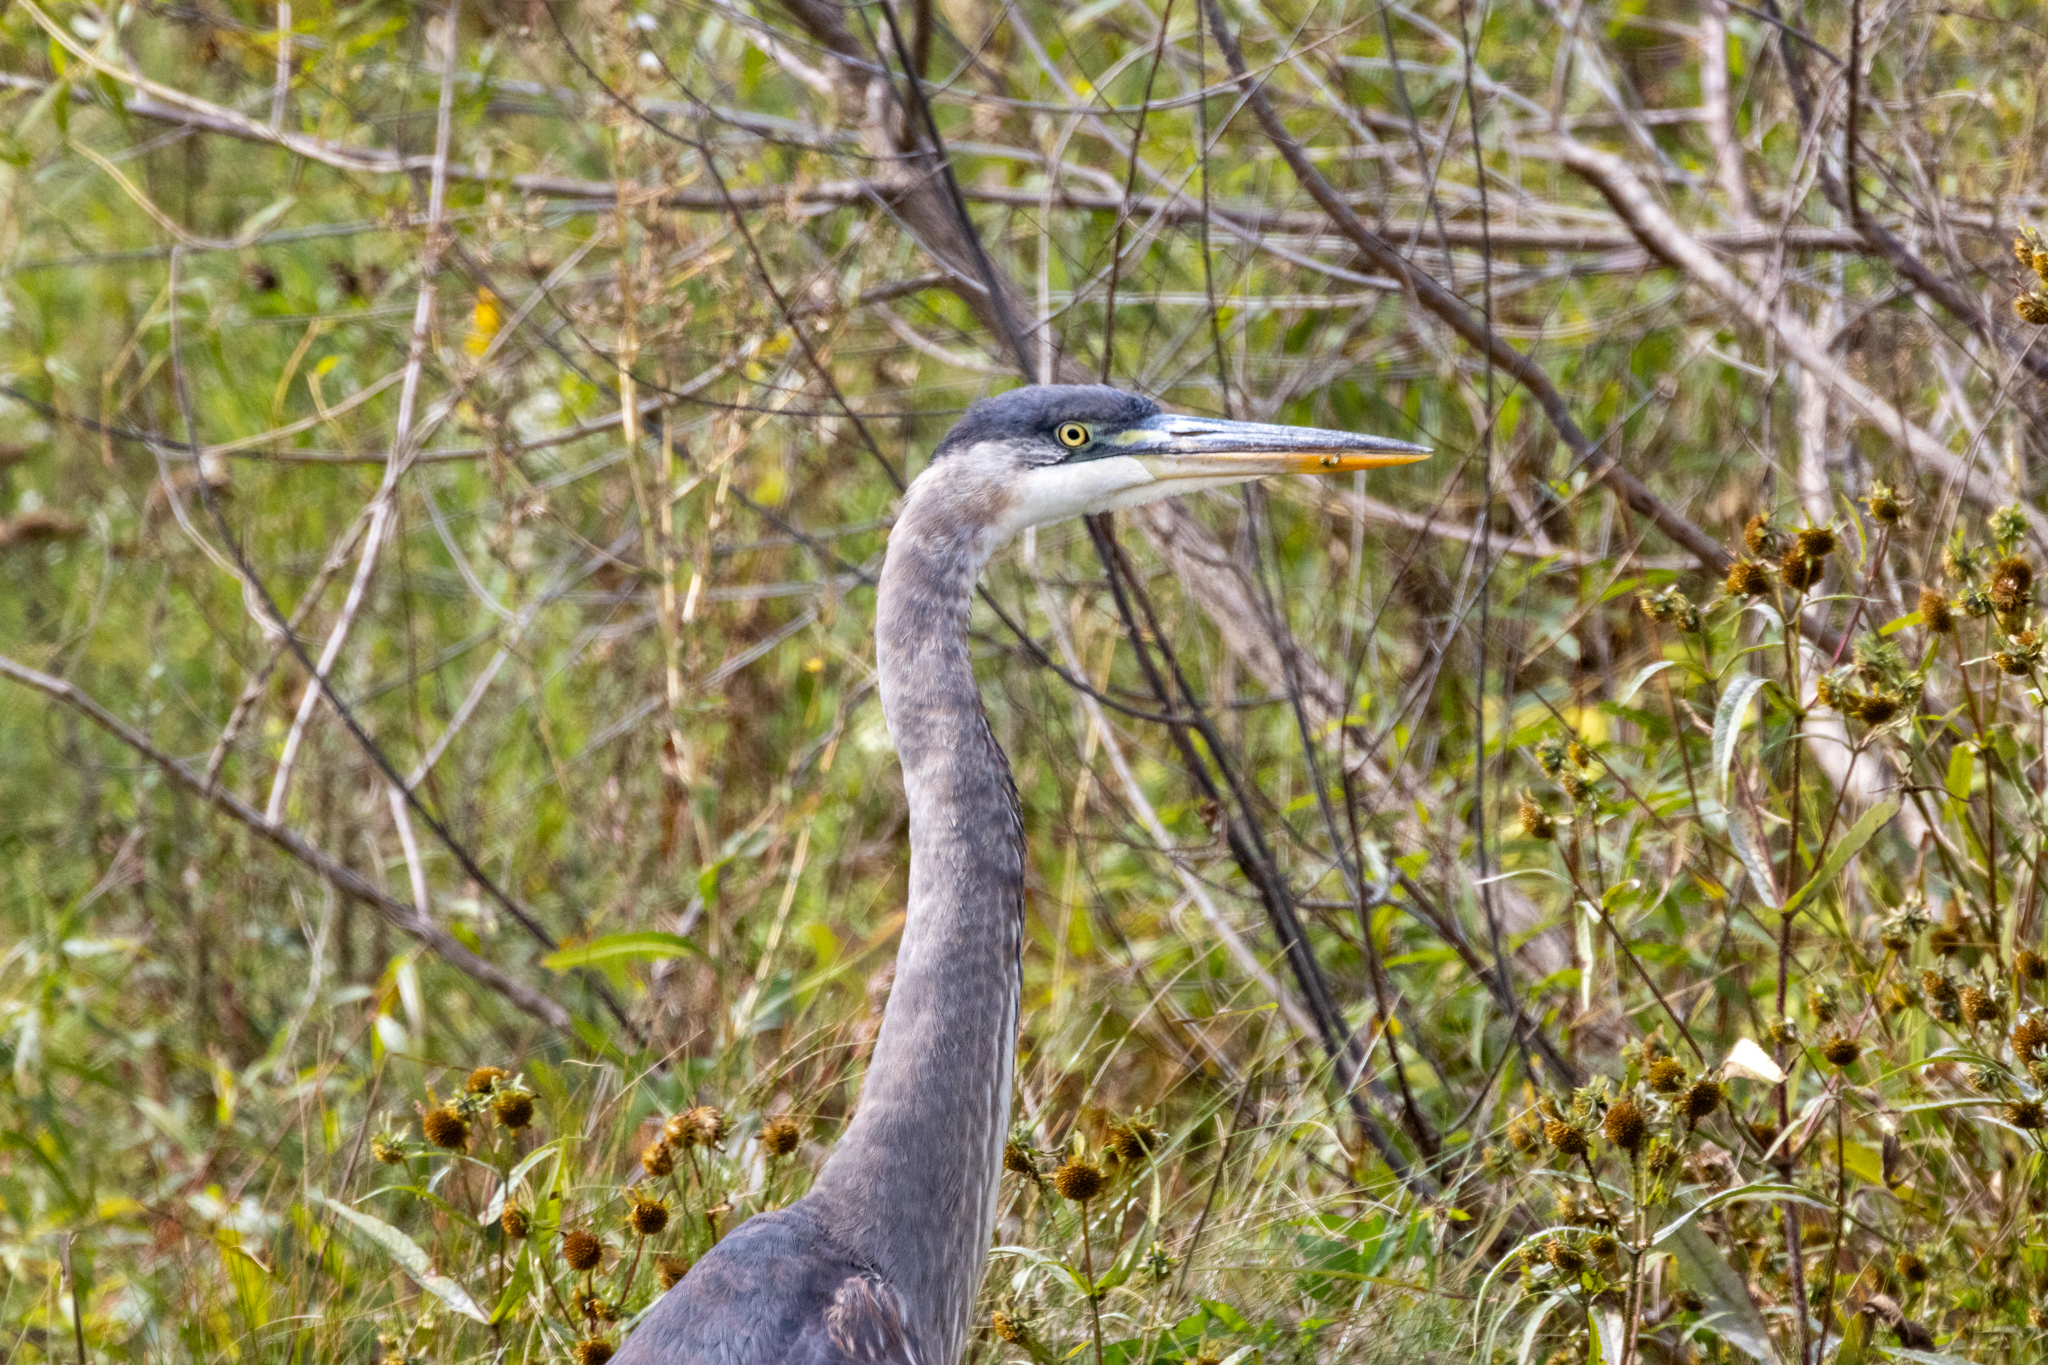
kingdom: Animalia
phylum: Chordata
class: Aves
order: Pelecaniformes
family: Ardeidae
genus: Ardea
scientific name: Ardea herodias
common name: Great blue heron
